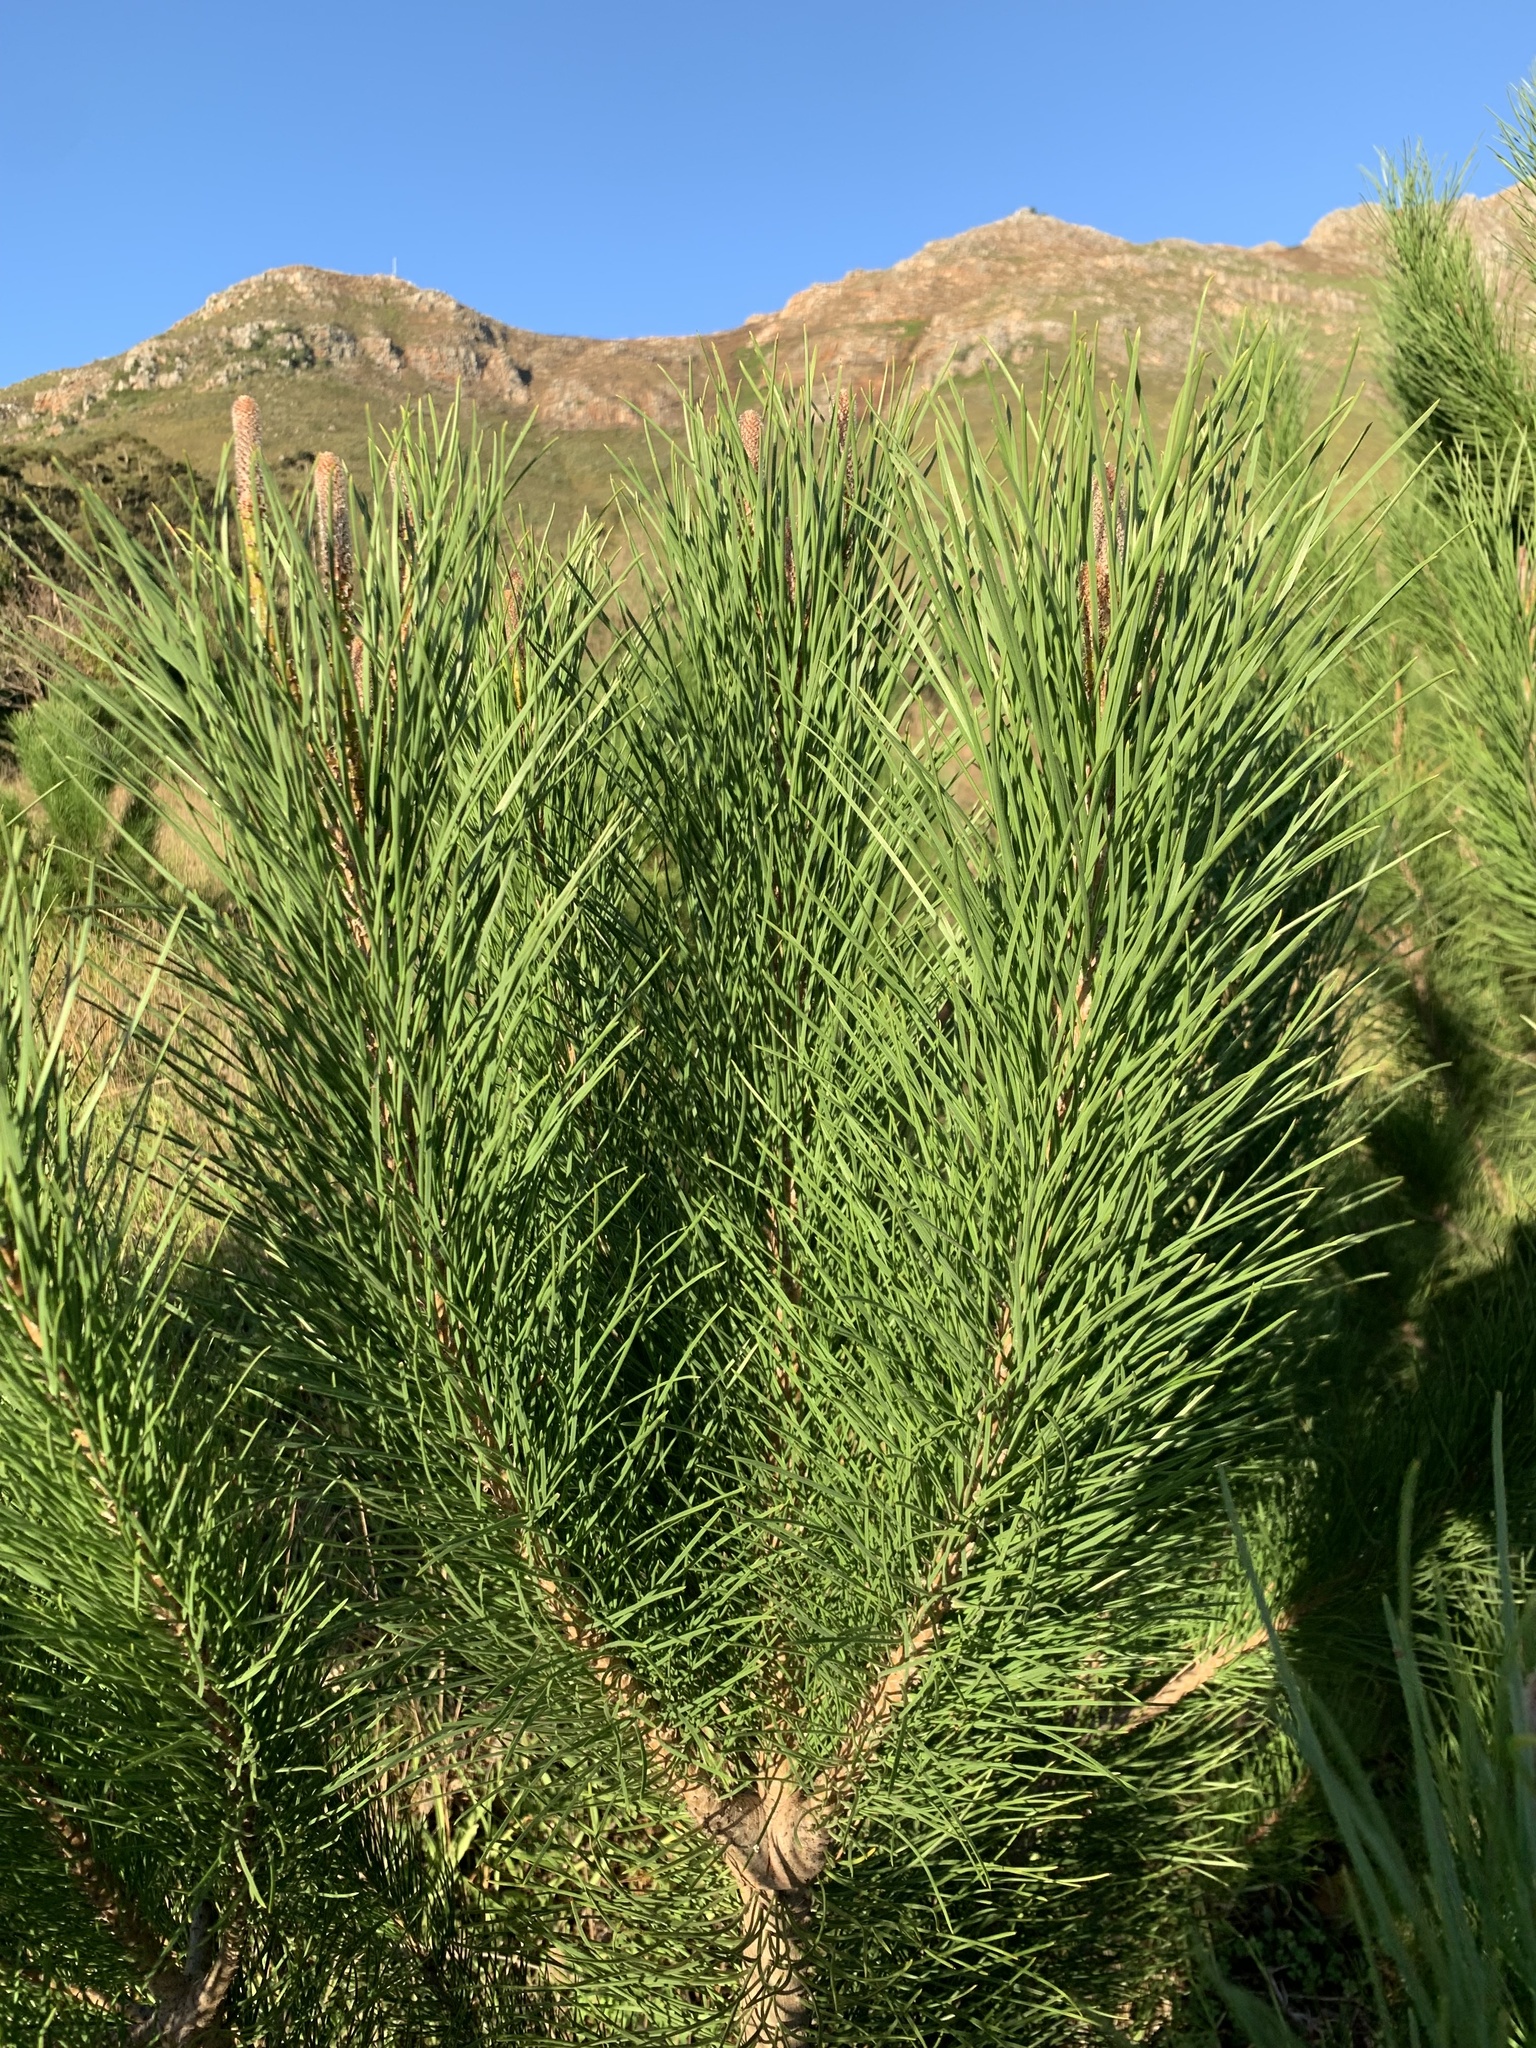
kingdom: Plantae
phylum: Tracheophyta
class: Pinopsida
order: Pinales
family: Pinaceae
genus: Pinus
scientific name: Pinus pinea
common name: Italian stone pine
